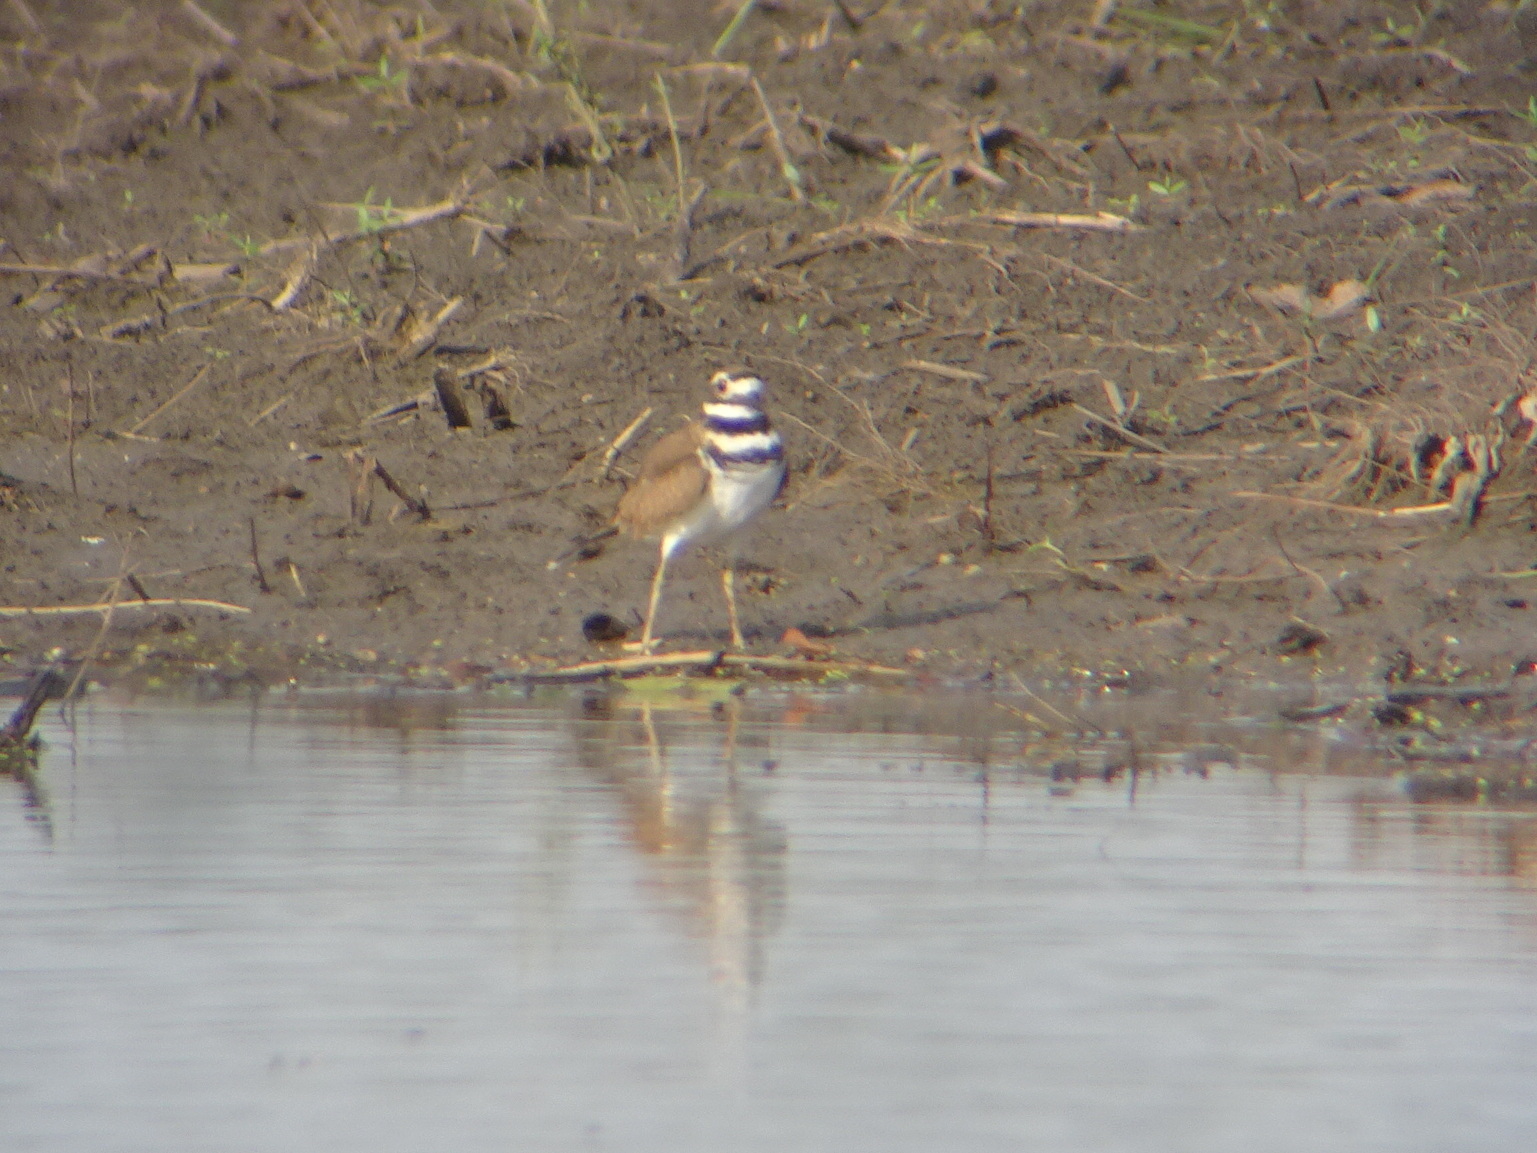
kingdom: Animalia
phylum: Chordata
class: Aves
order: Charadriiformes
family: Charadriidae
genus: Charadrius
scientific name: Charadrius vociferus
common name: Killdeer
